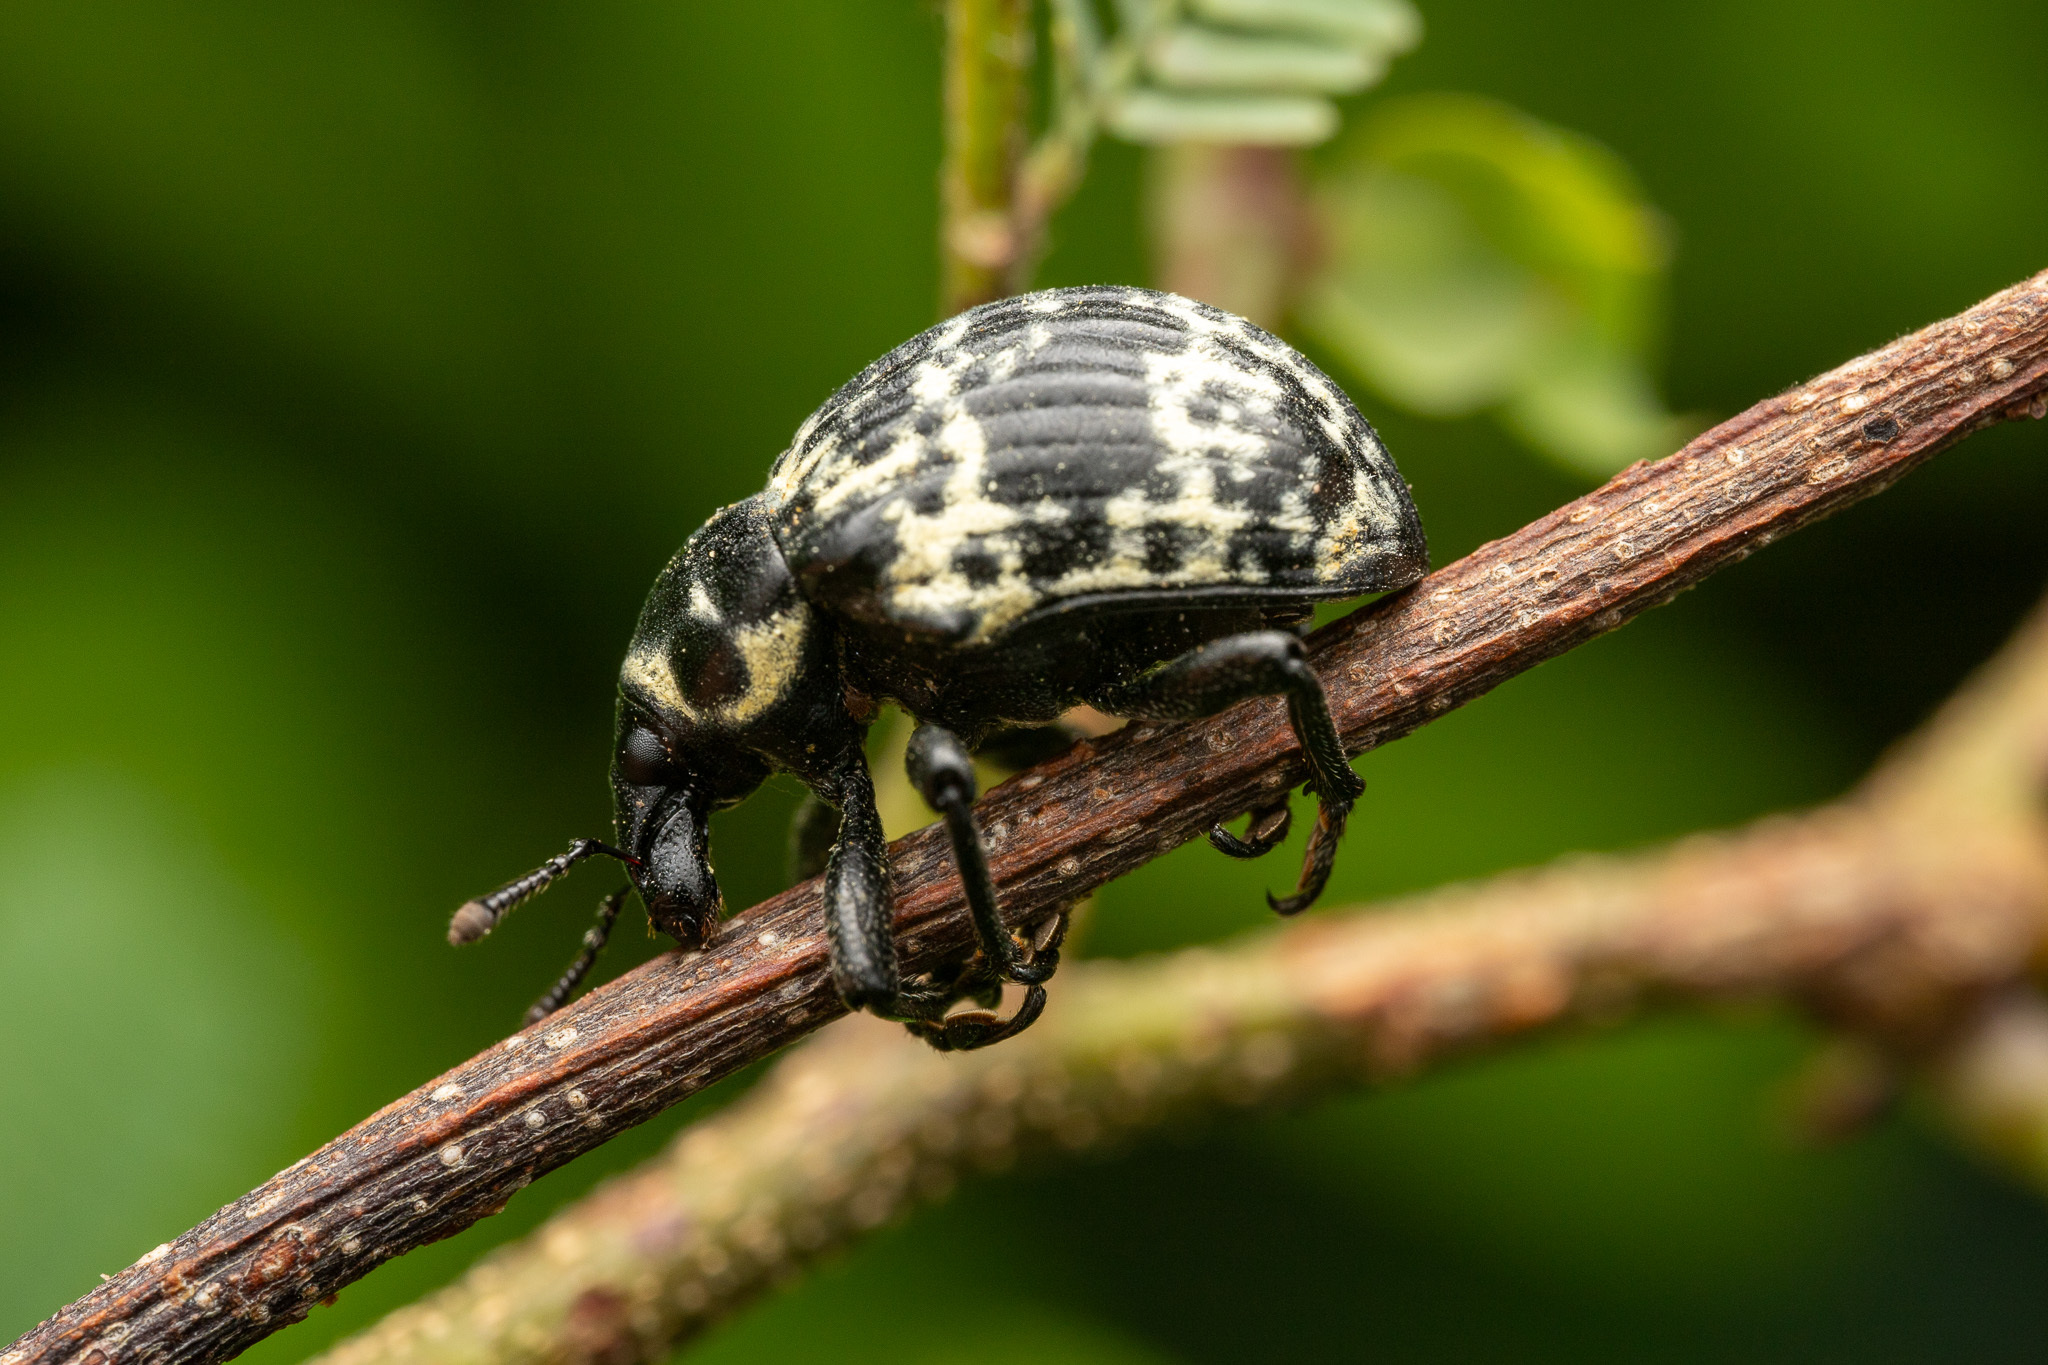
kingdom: Animalia
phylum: Arthropoda
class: Insecta
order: Coleoptera
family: Curculionidae
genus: Sternechus
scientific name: Sternechus extortus
